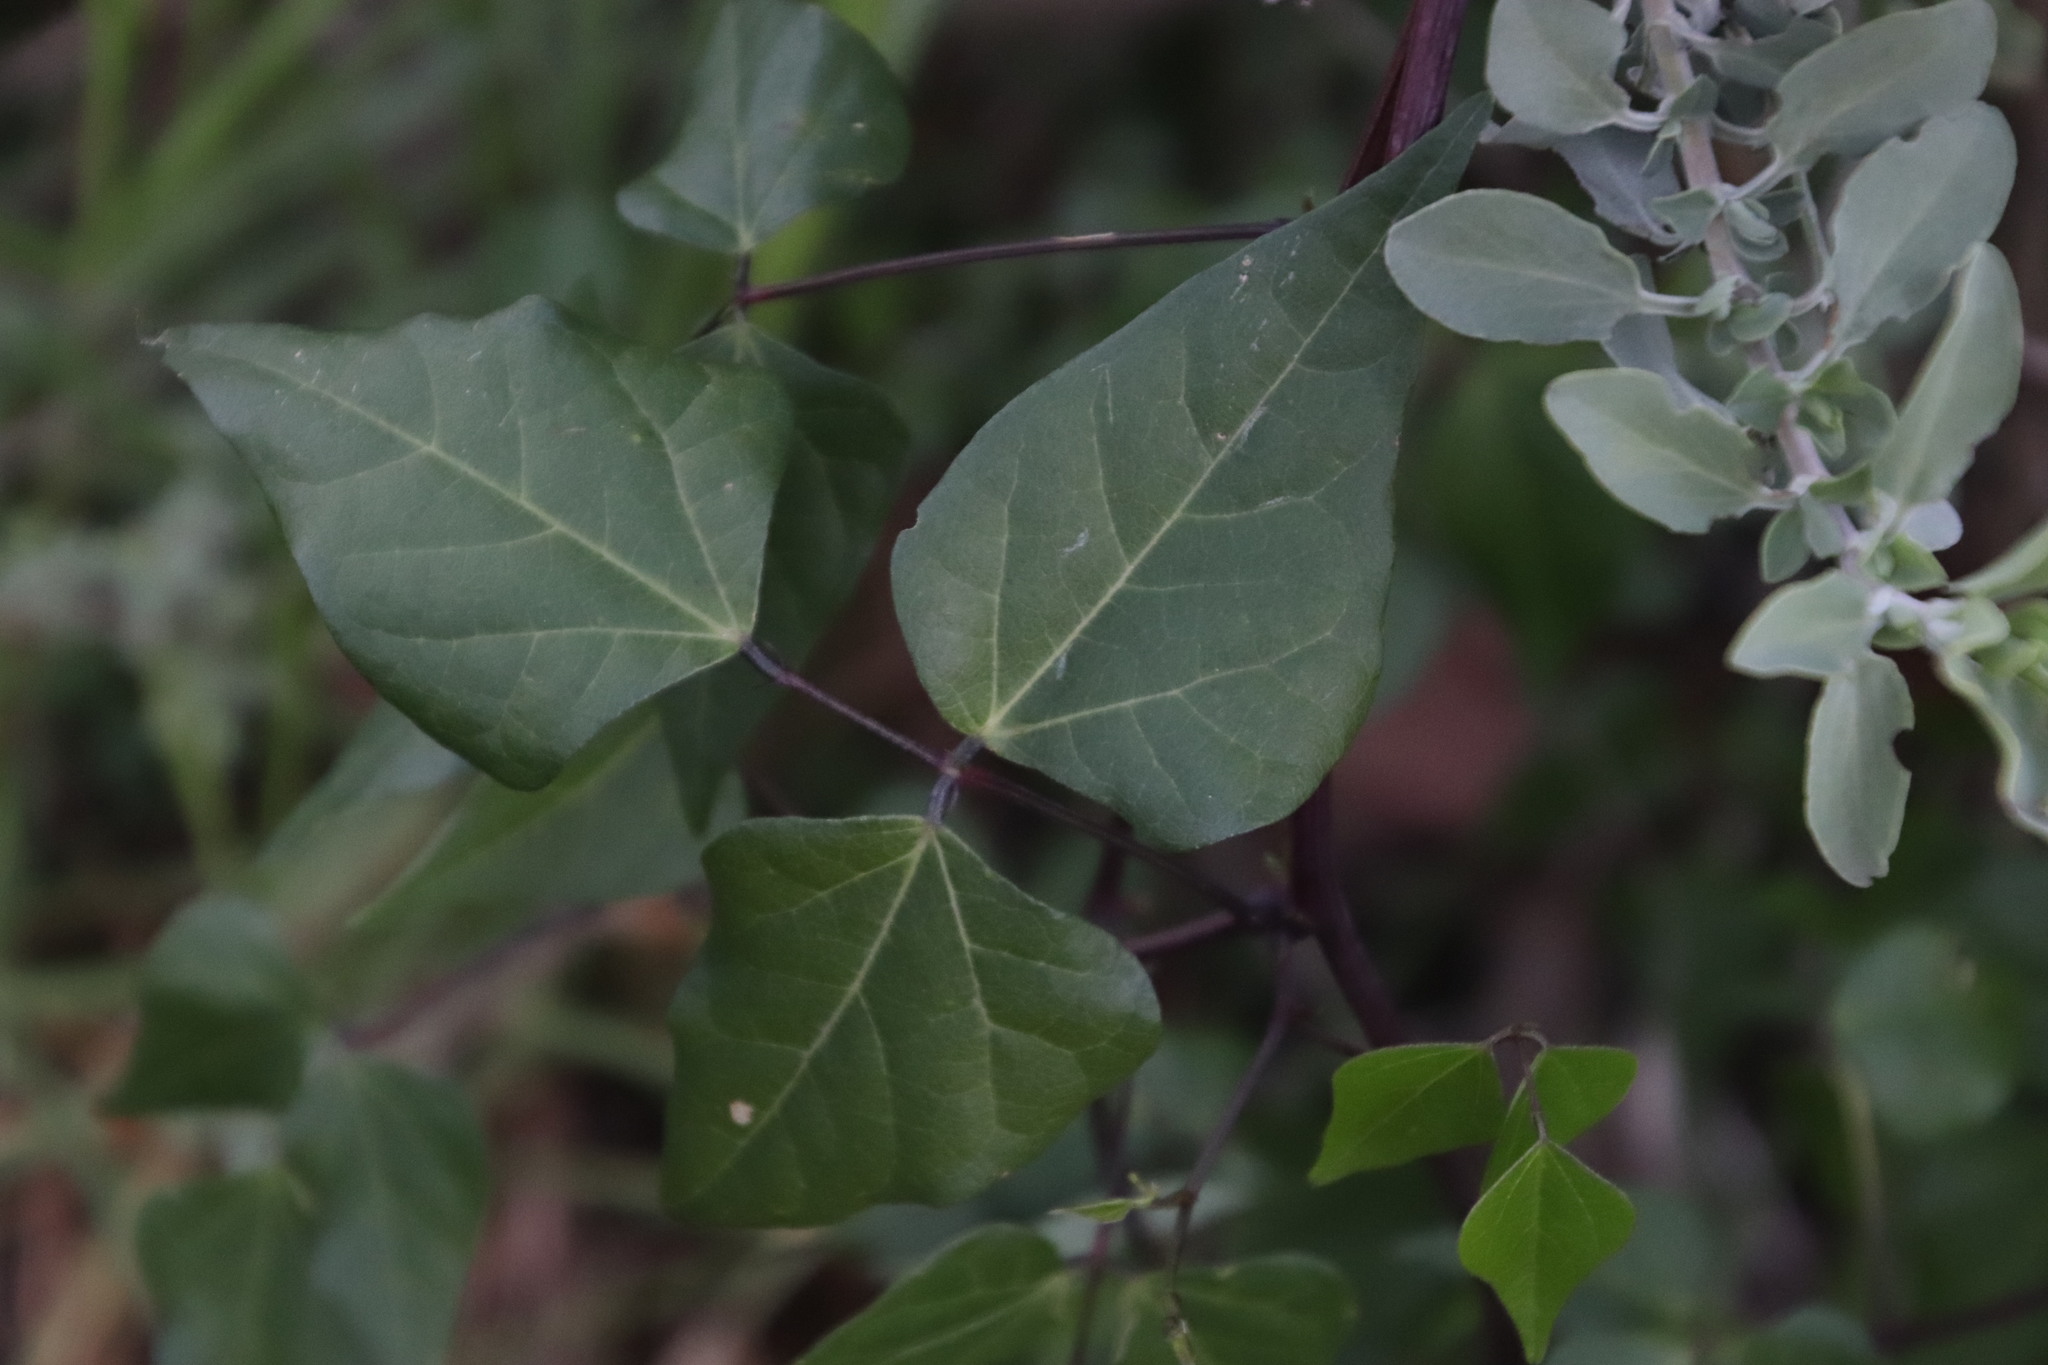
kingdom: Plantae
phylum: Tracheophyta
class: Magnoliopsida
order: Fabales
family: Fabaceae
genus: Dipogon
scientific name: Dipogon lignosus
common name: Okie bean
